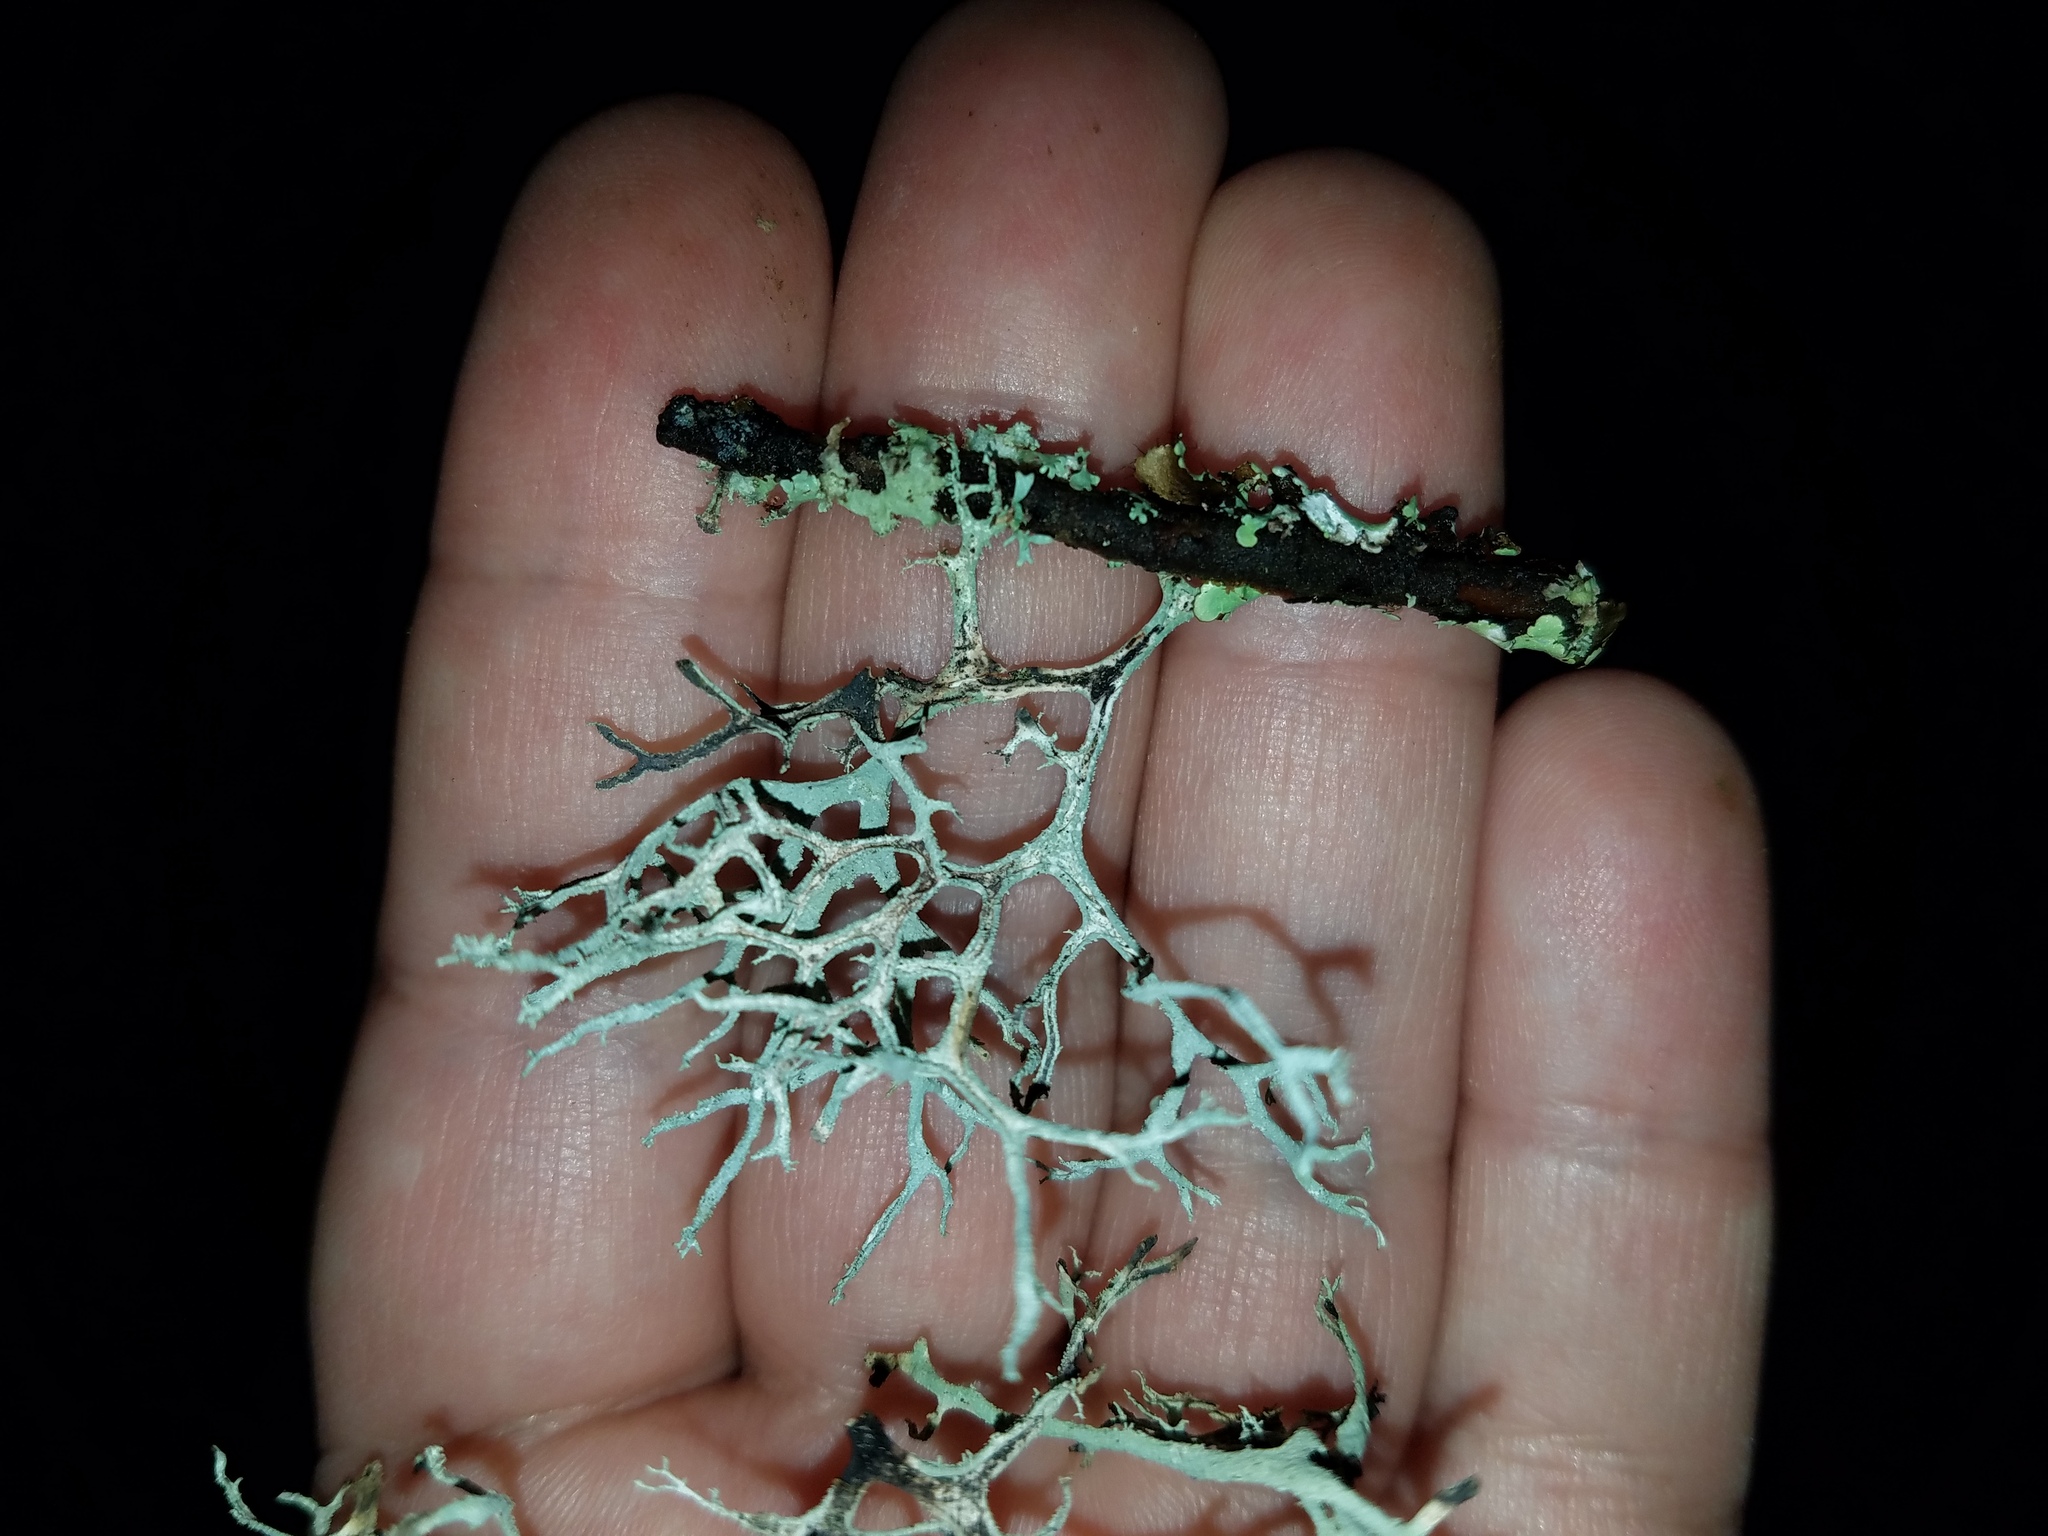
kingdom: Fungi
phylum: Ascomycota
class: Lecanoromycetes
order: Lecanorales
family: Parmeliaceae
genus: Pseudevernia
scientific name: Pseudevernia consocians
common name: Common antler lichen
